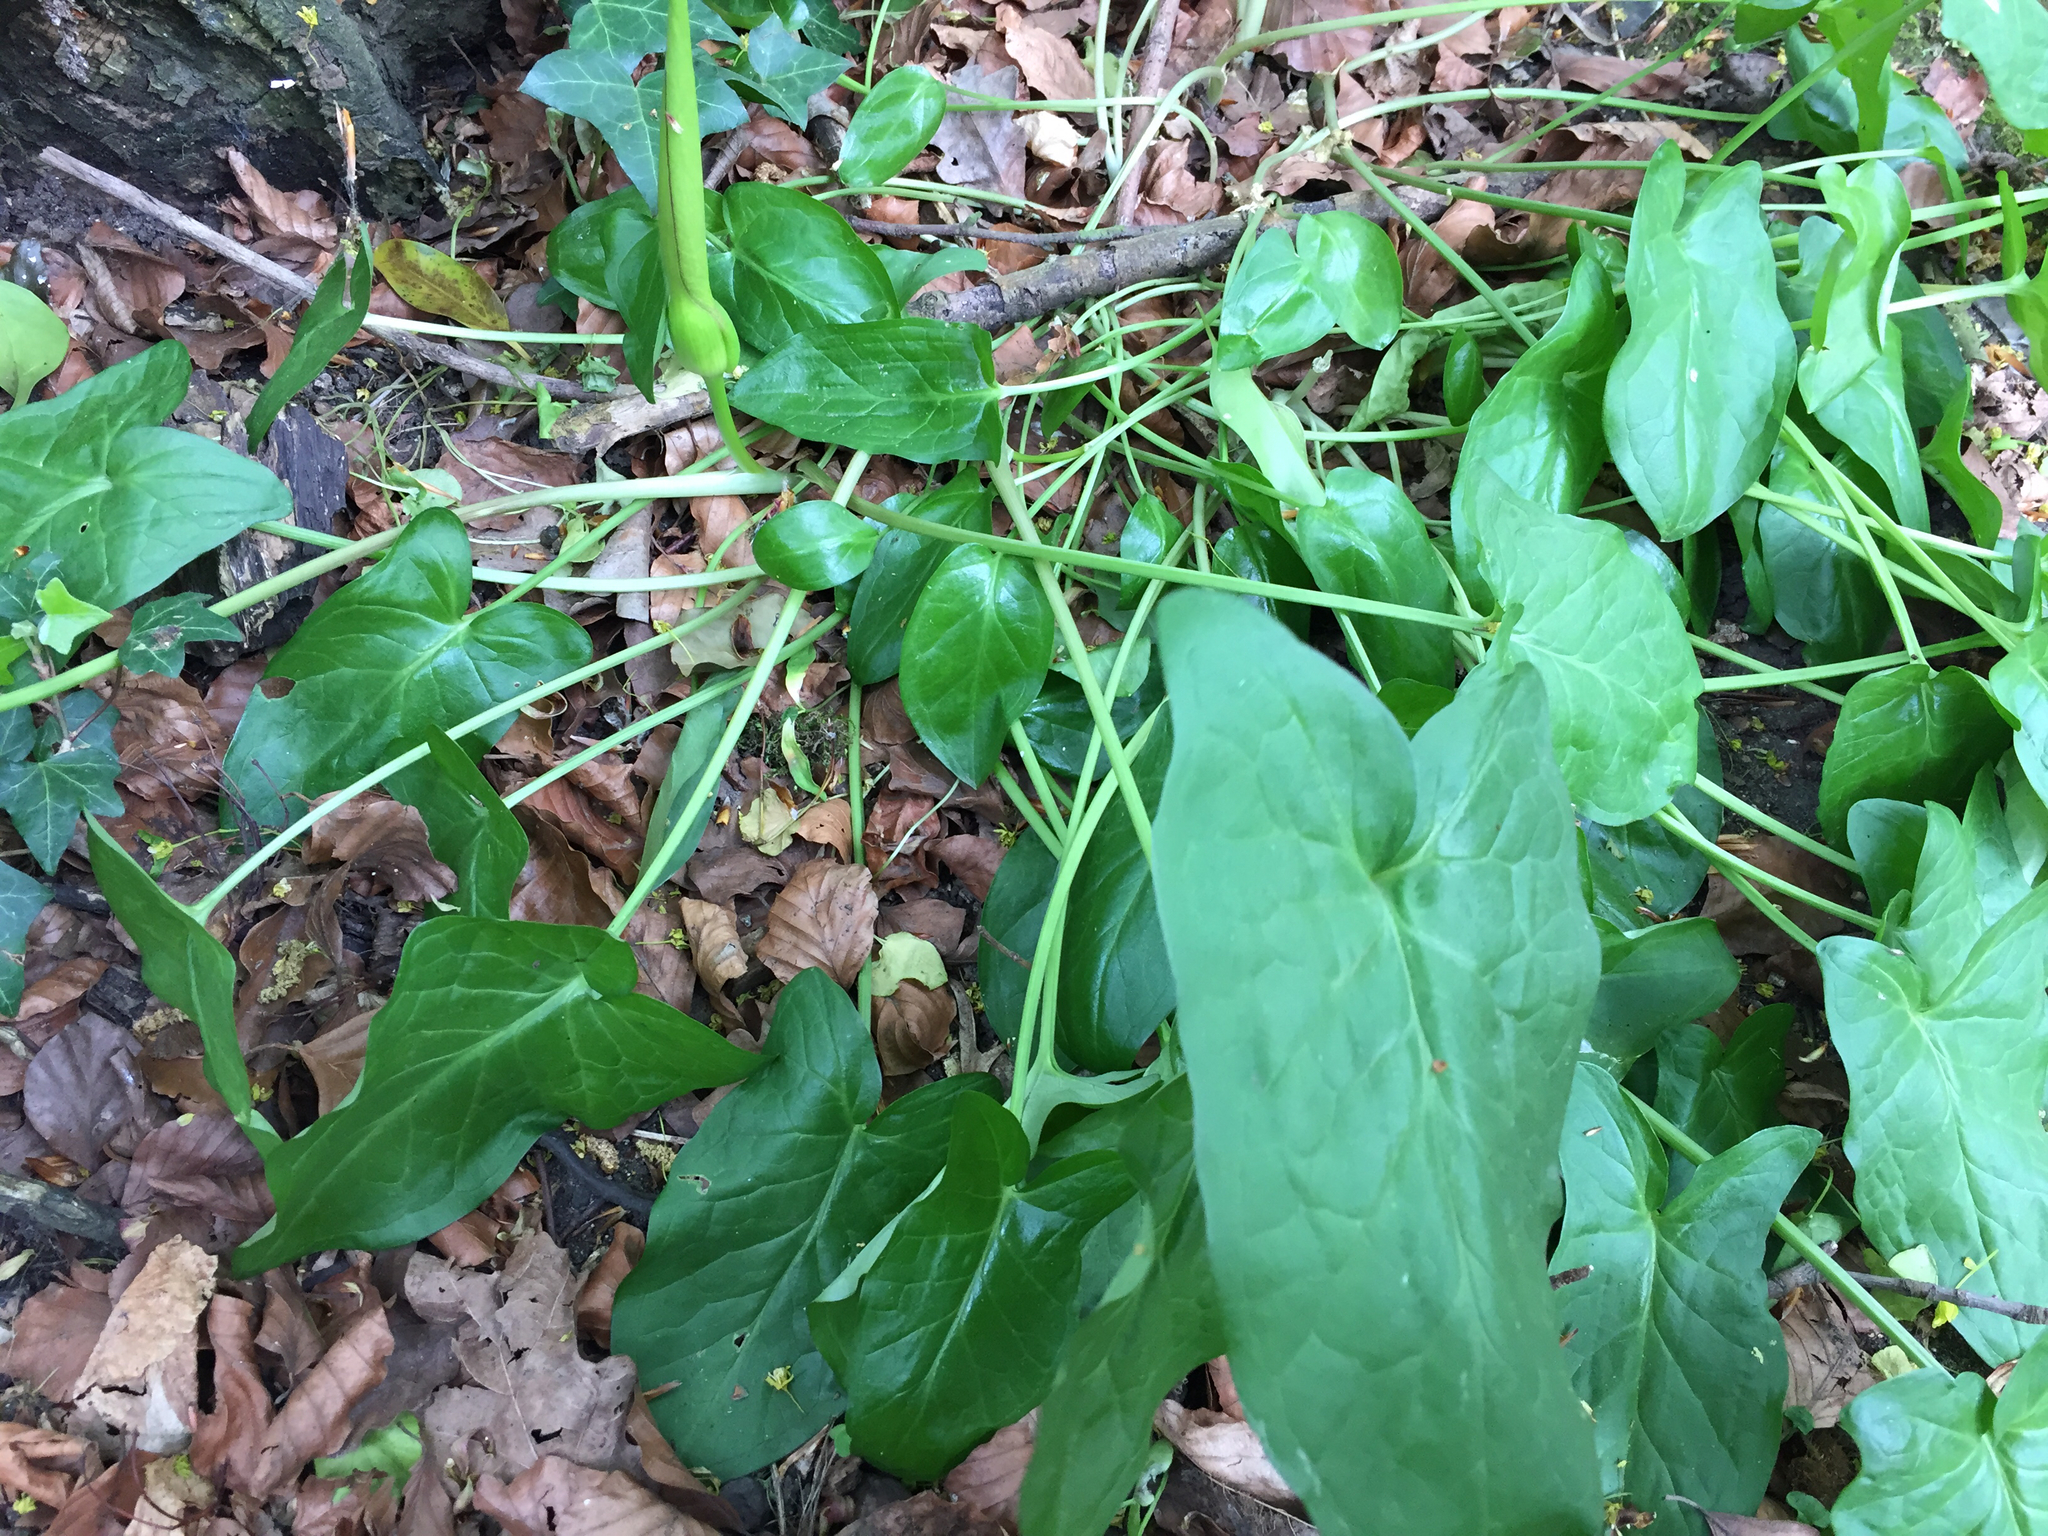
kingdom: Plantae
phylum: Tracheophyta
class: Liliopsida
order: Alismatales
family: Araceae
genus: Arum
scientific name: Arum maculatum
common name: Lords-and-ladies
